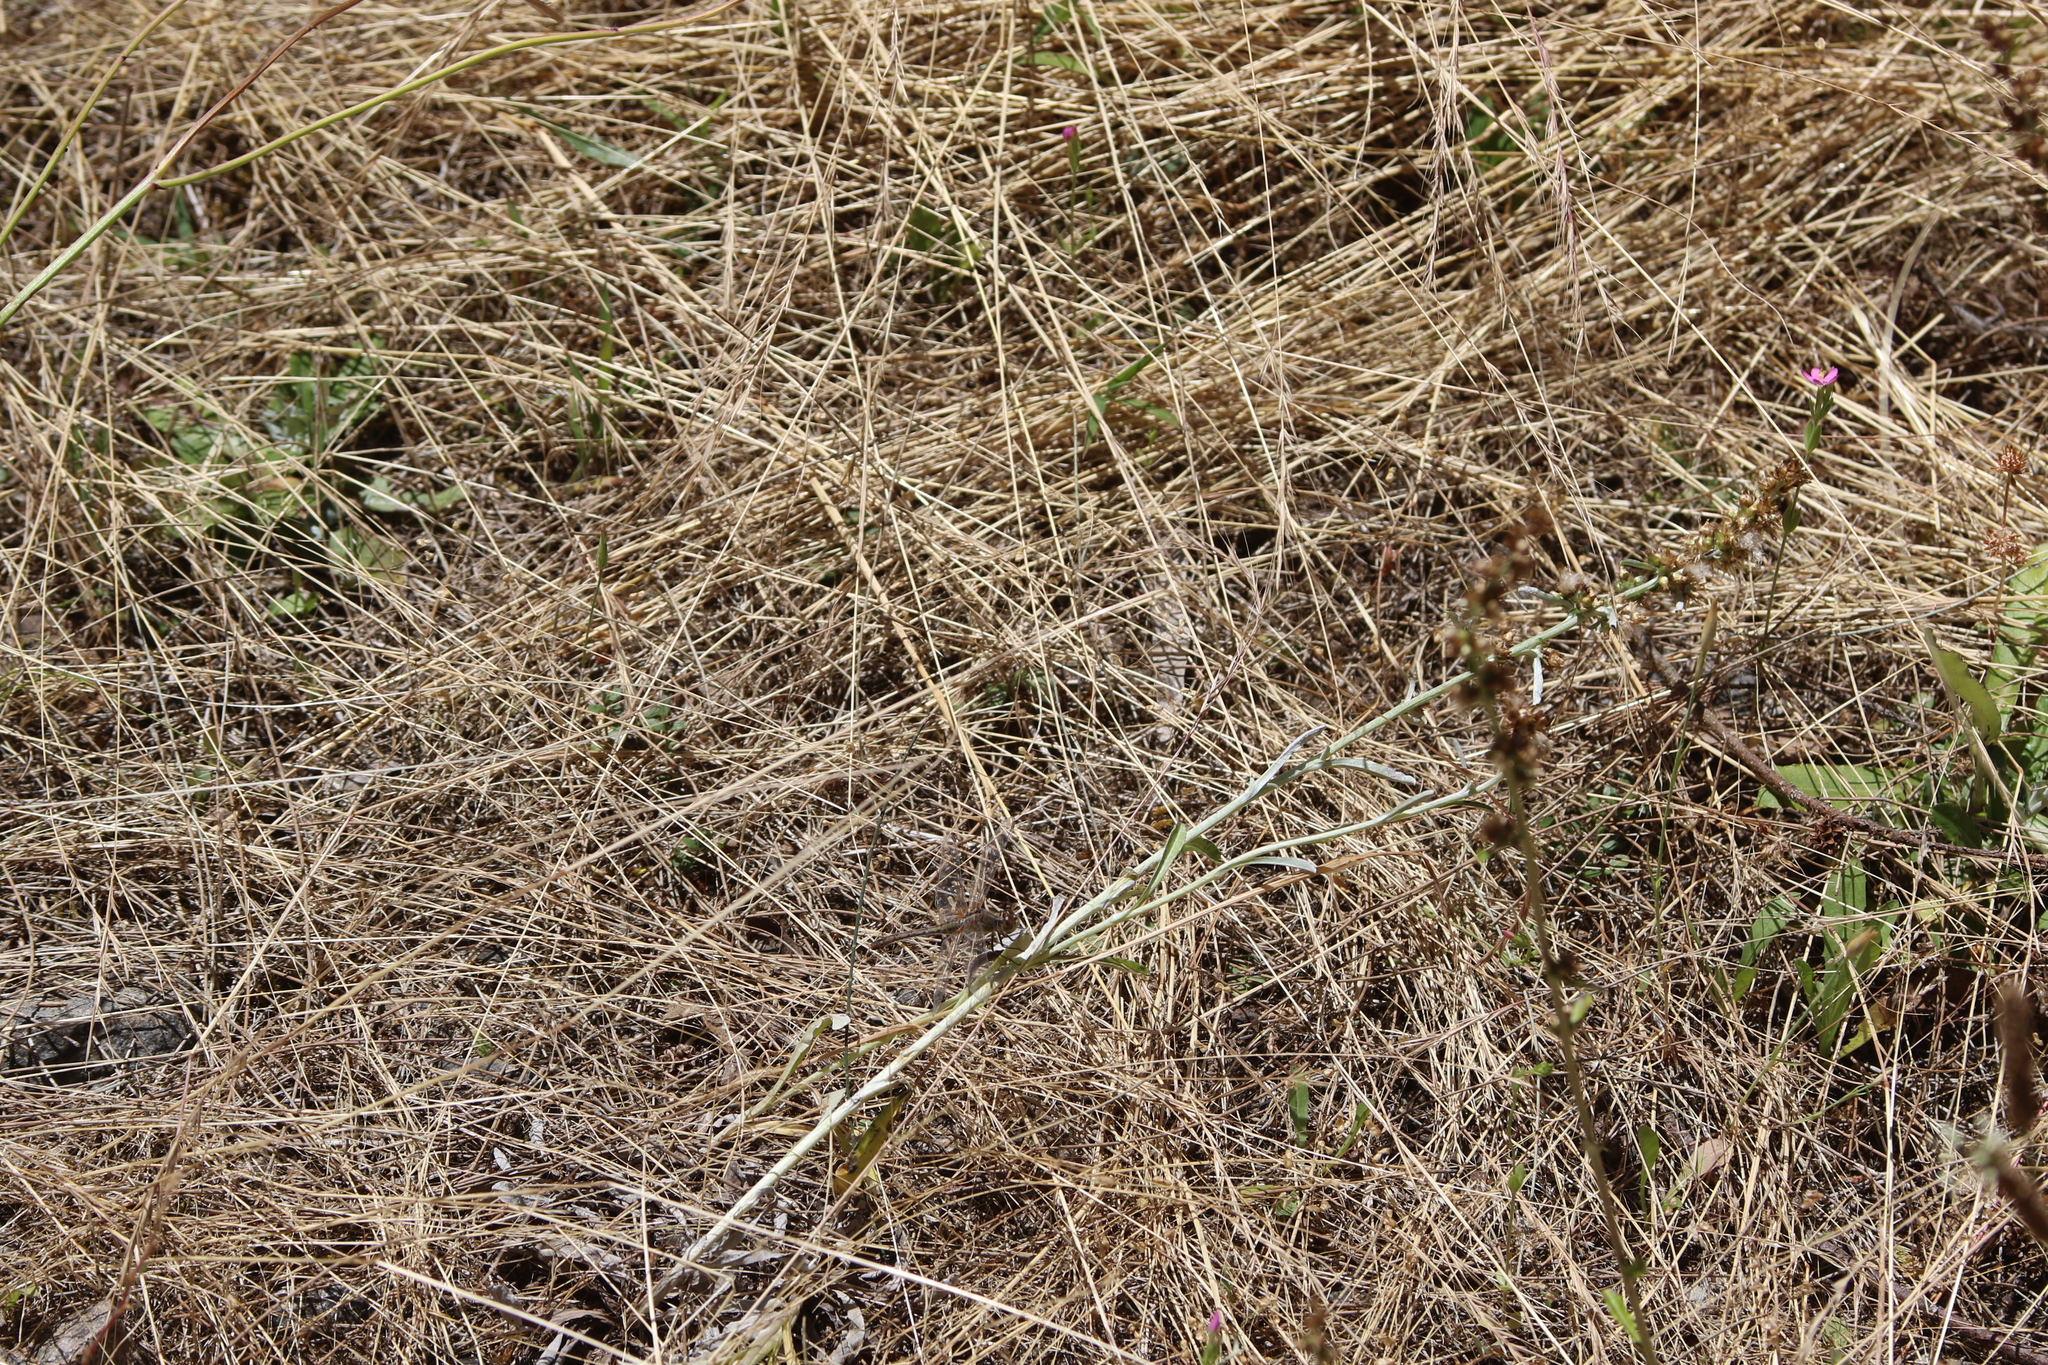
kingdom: Animalia
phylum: Arthropoda
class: Insecta
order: Odonata
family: Libellulidae
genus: Diplacodes
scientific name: Diplacodes bipunctata
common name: Red percher dragonfly
